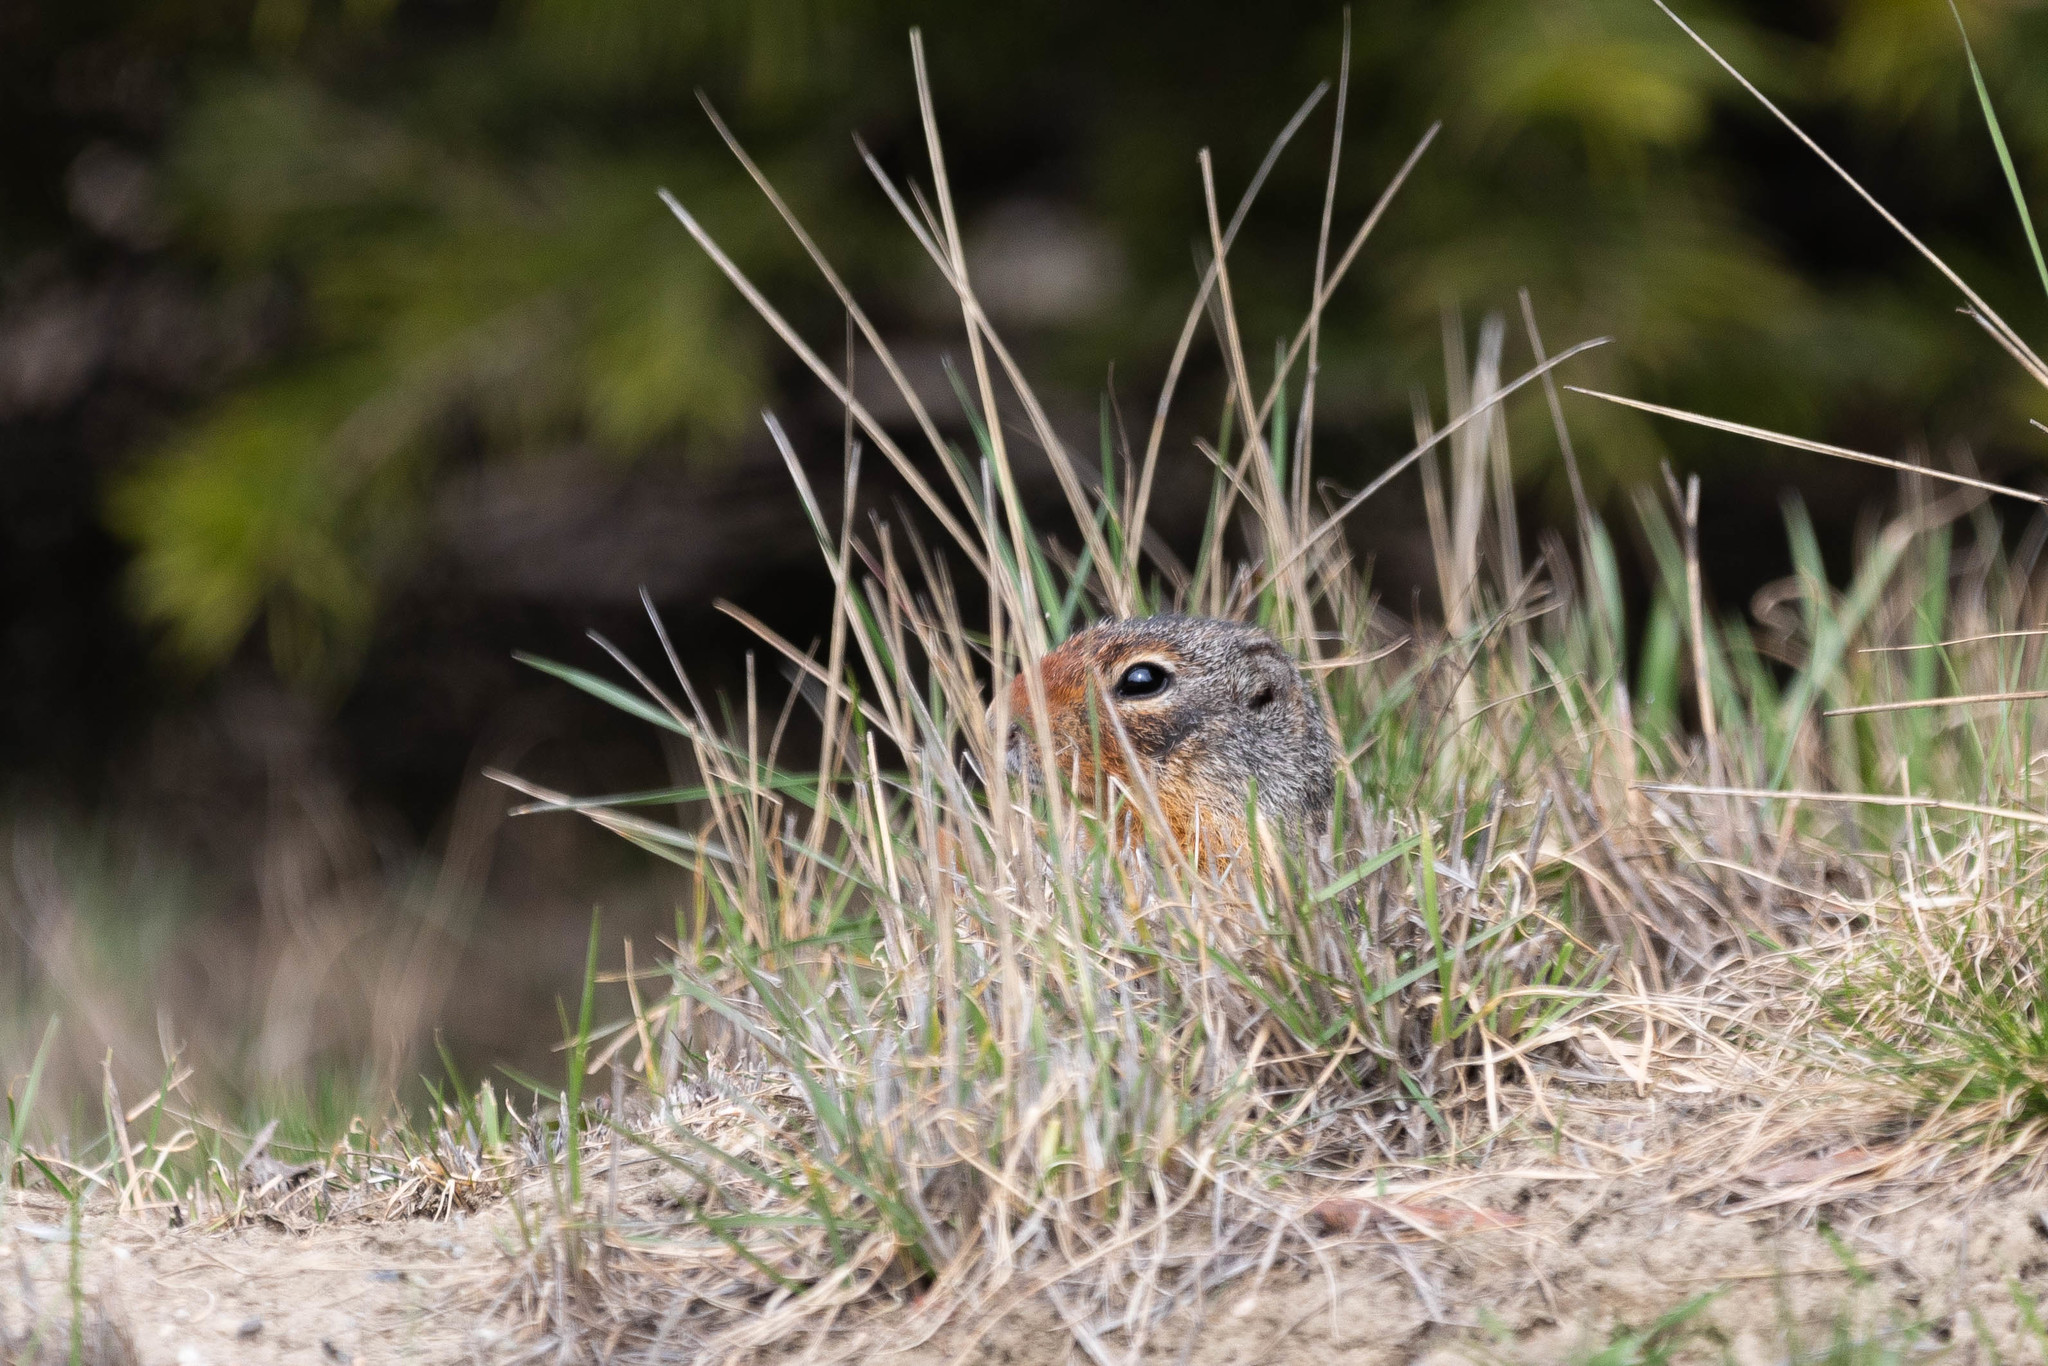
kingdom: Animalia
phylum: Chordata
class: Mammalia
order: Rodentia
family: Sciuridae
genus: Urocitellus
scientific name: Urocitellus columbianus
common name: Columbian ground squirrel
